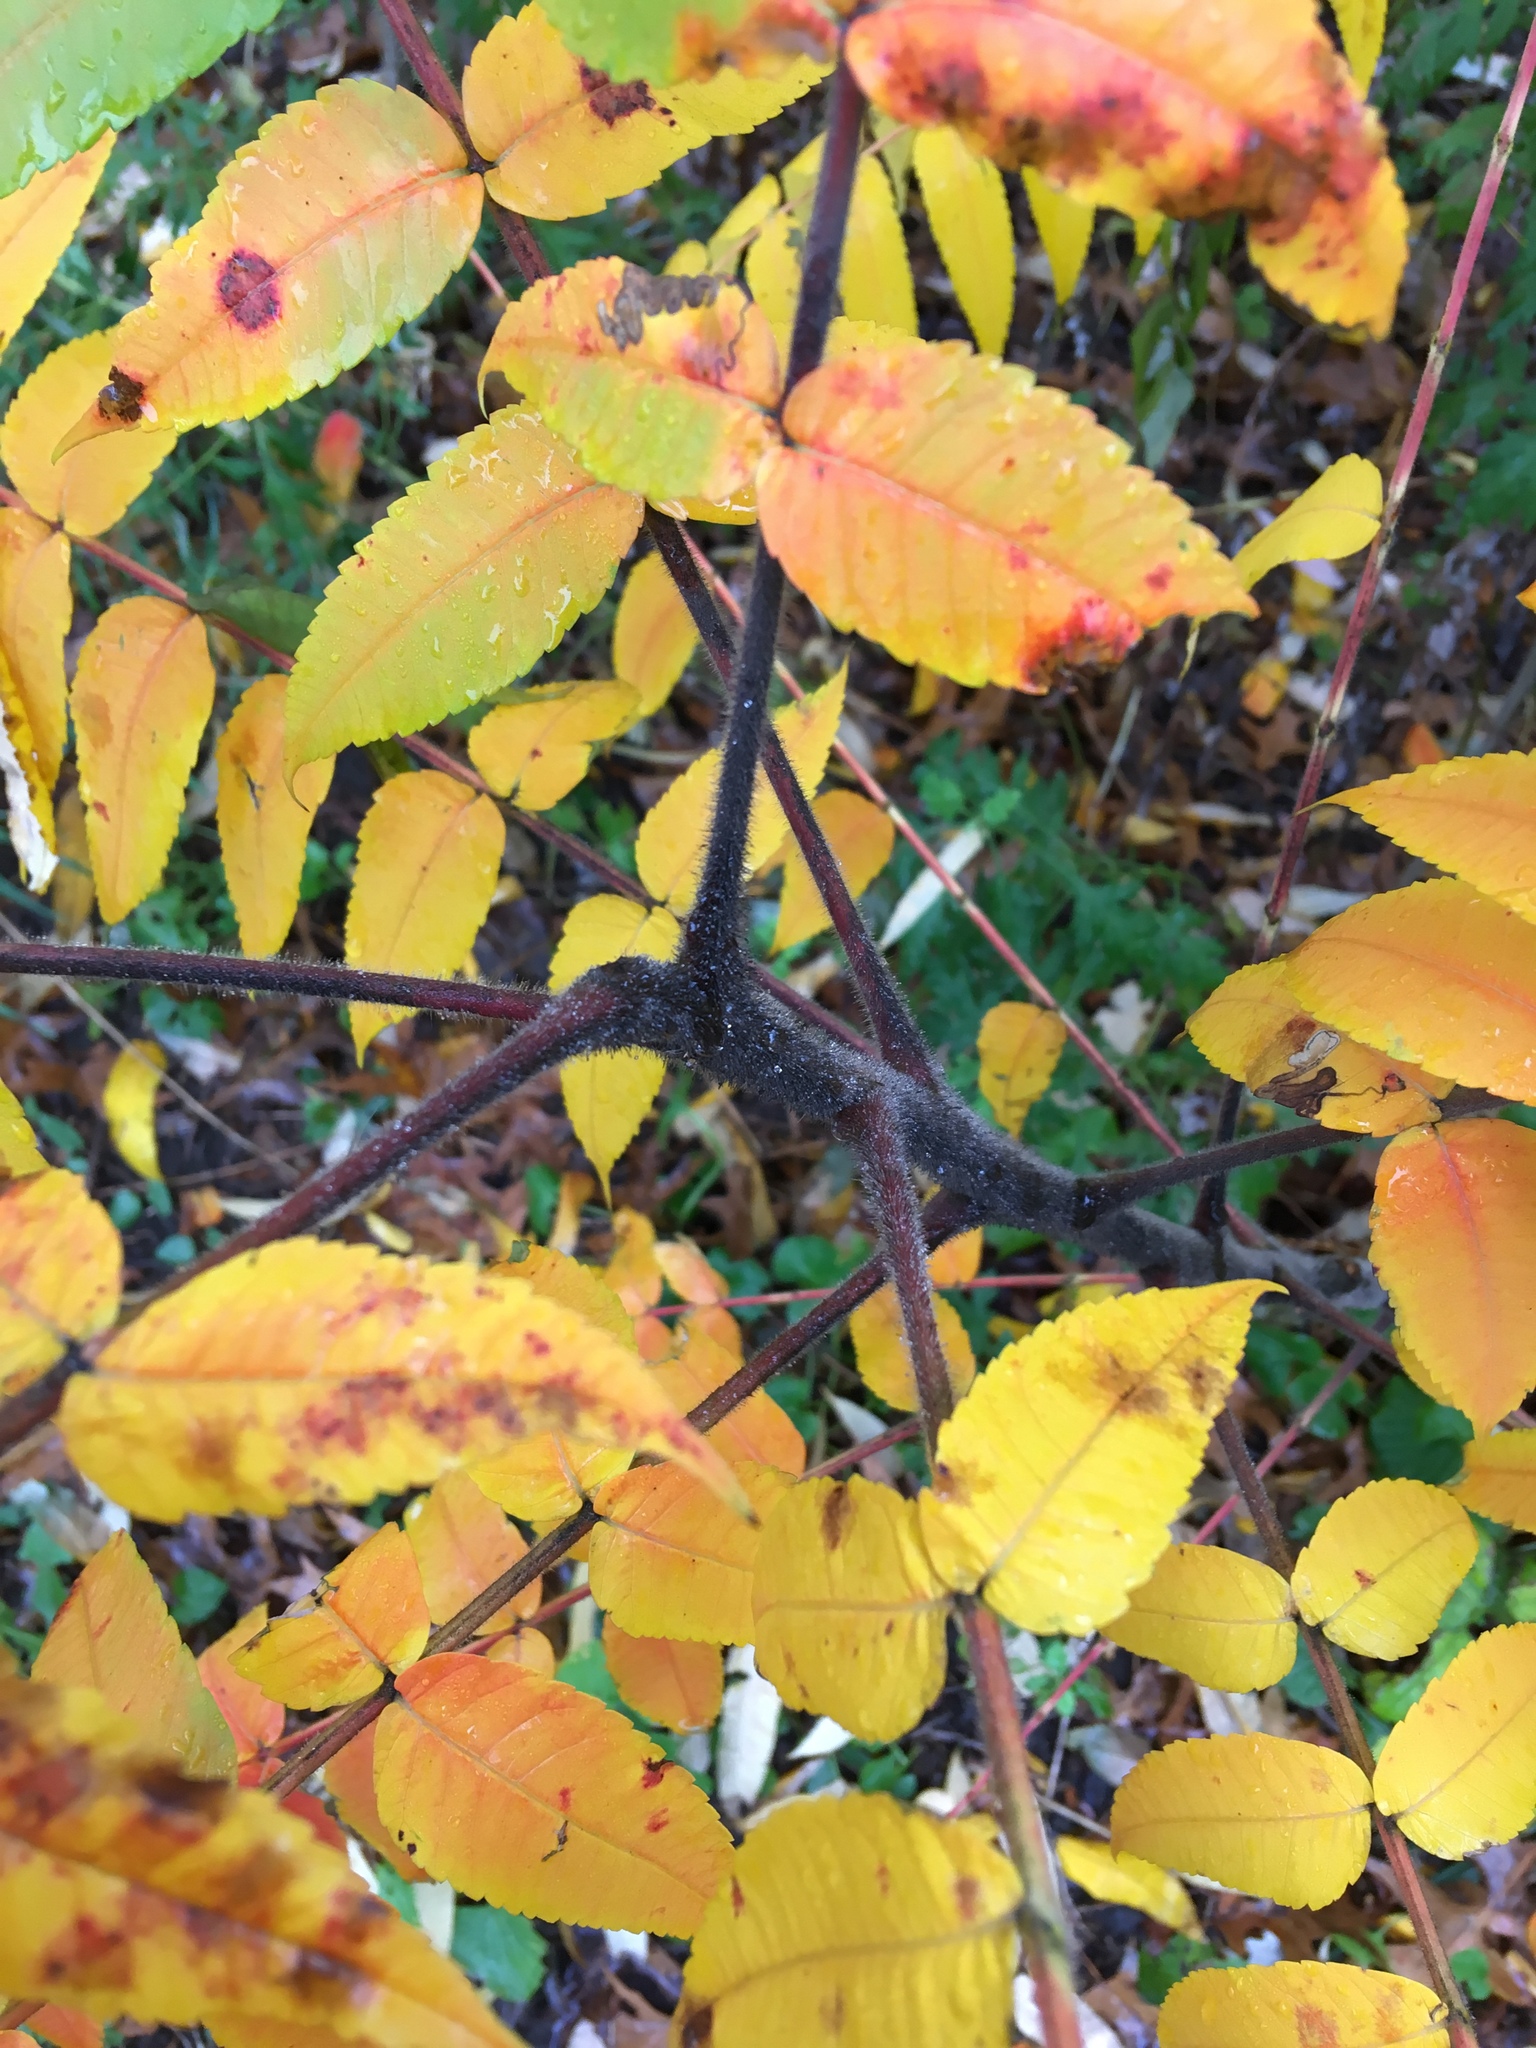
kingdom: Plantae
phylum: Tracheophyta
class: Magnoliopsida
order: Sapindales
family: Anacardiaceae
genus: Rhus
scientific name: Rhus typhina
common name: Staghorn sumac
